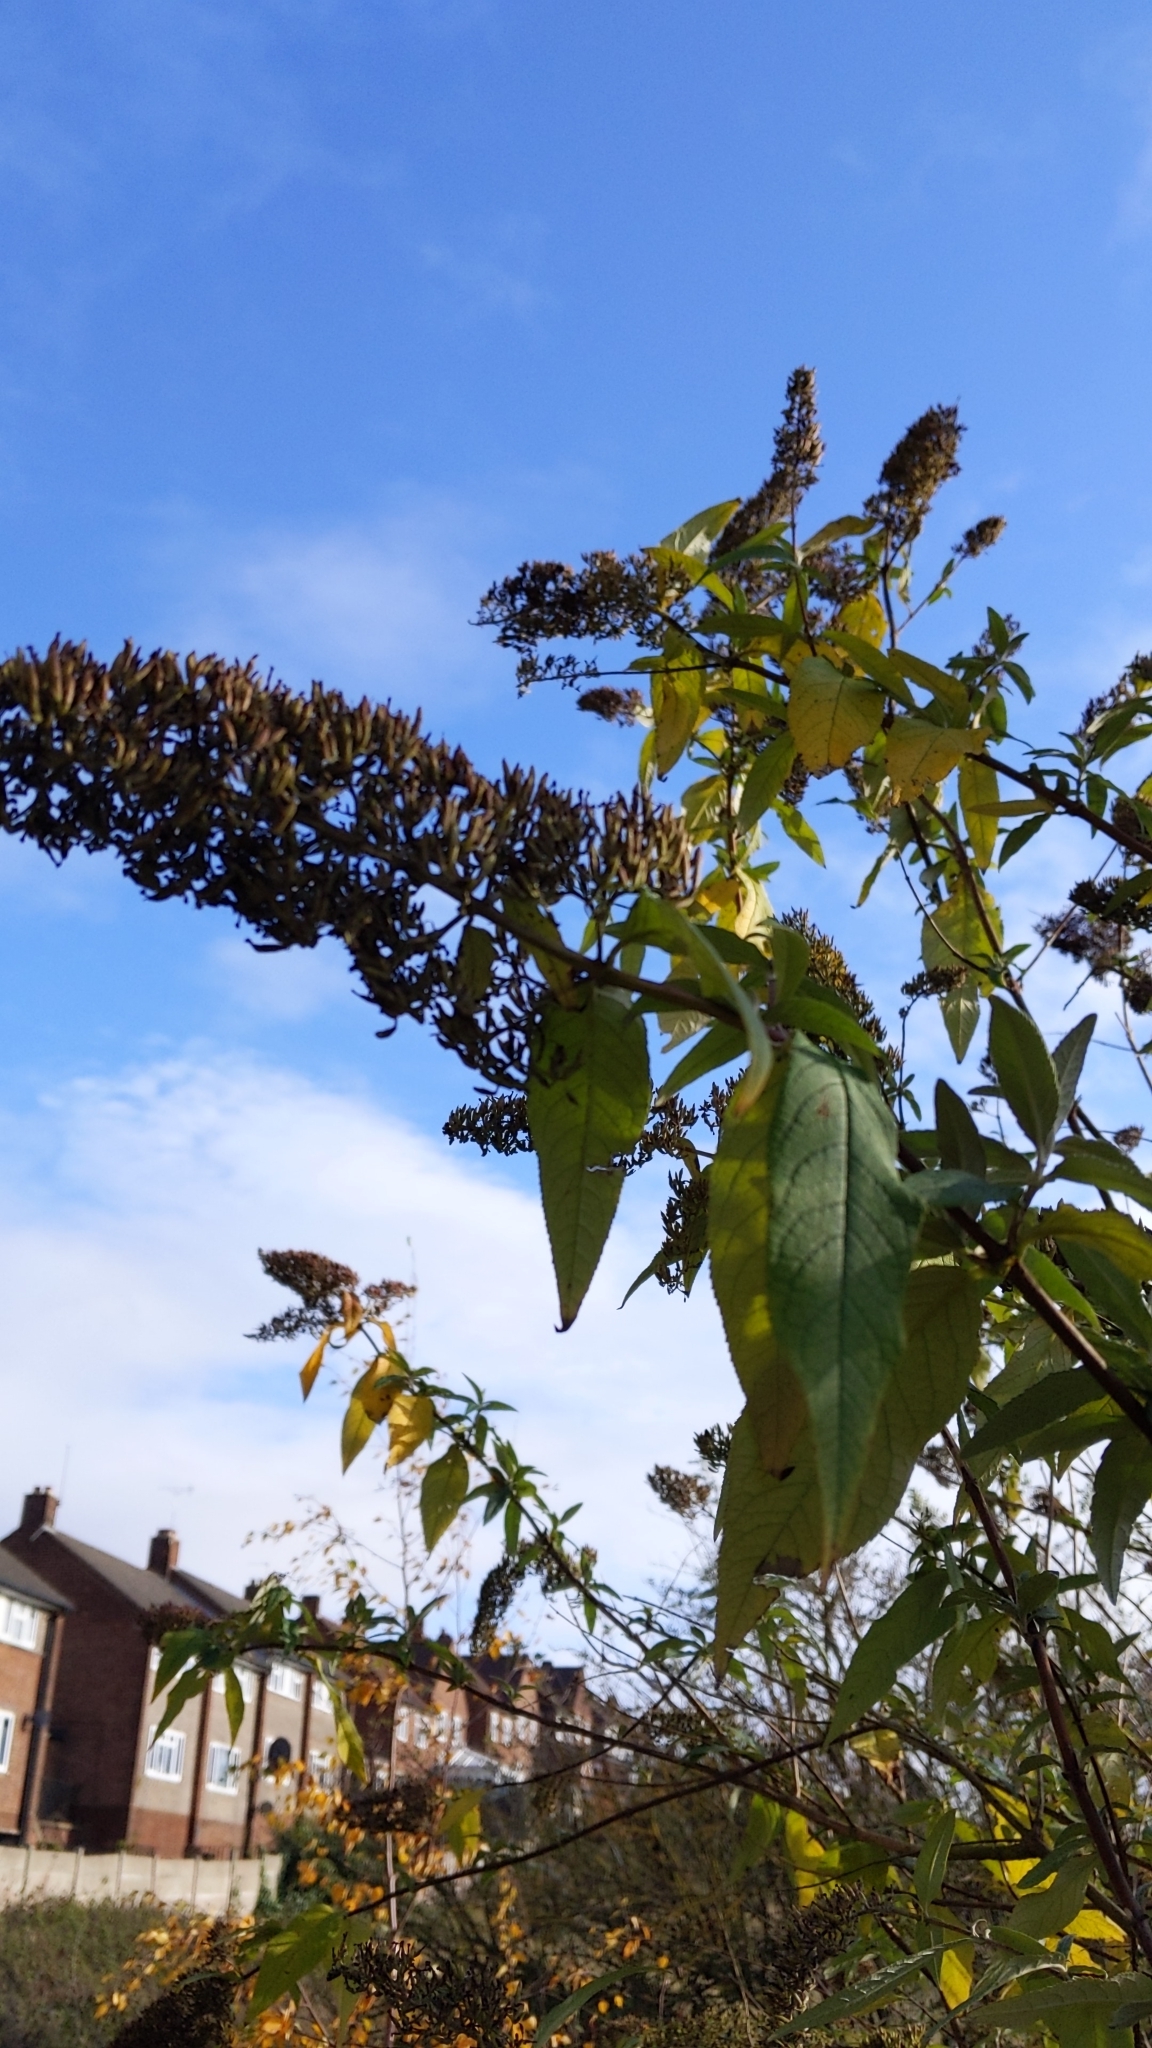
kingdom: Plantae
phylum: Tracheophyta
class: Magnoliopsida
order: Lamiales
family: Scrophulariaceae
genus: Buddleja
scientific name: Buddleja davidii
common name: Butterfly-bush
